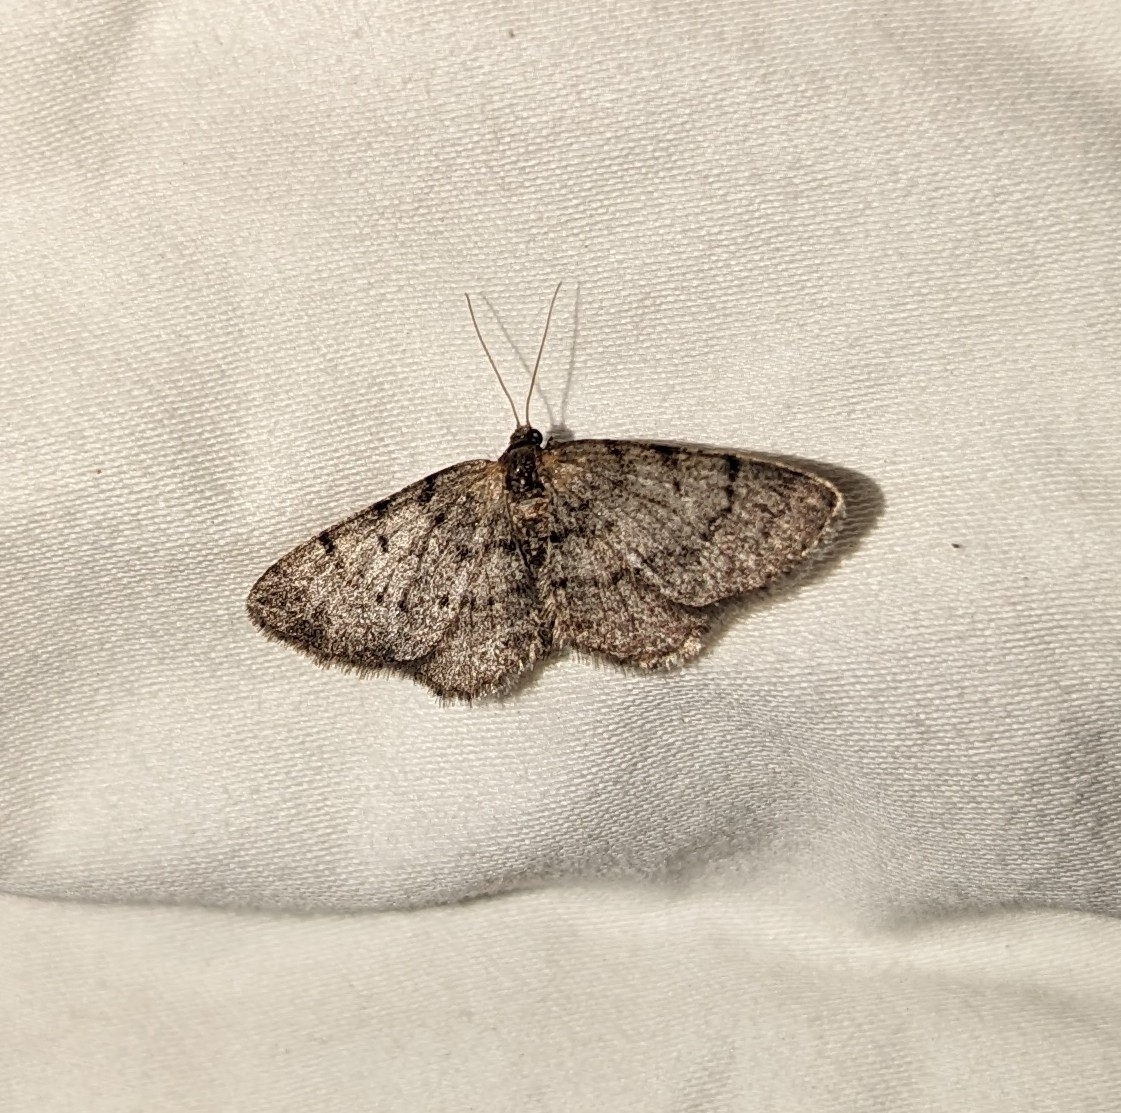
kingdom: Animalia
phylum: Arthropoda
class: Insecta
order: Lepidoptera
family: Geometridae
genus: Aethalura
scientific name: Aethalura intertexta
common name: Four-barred gray
